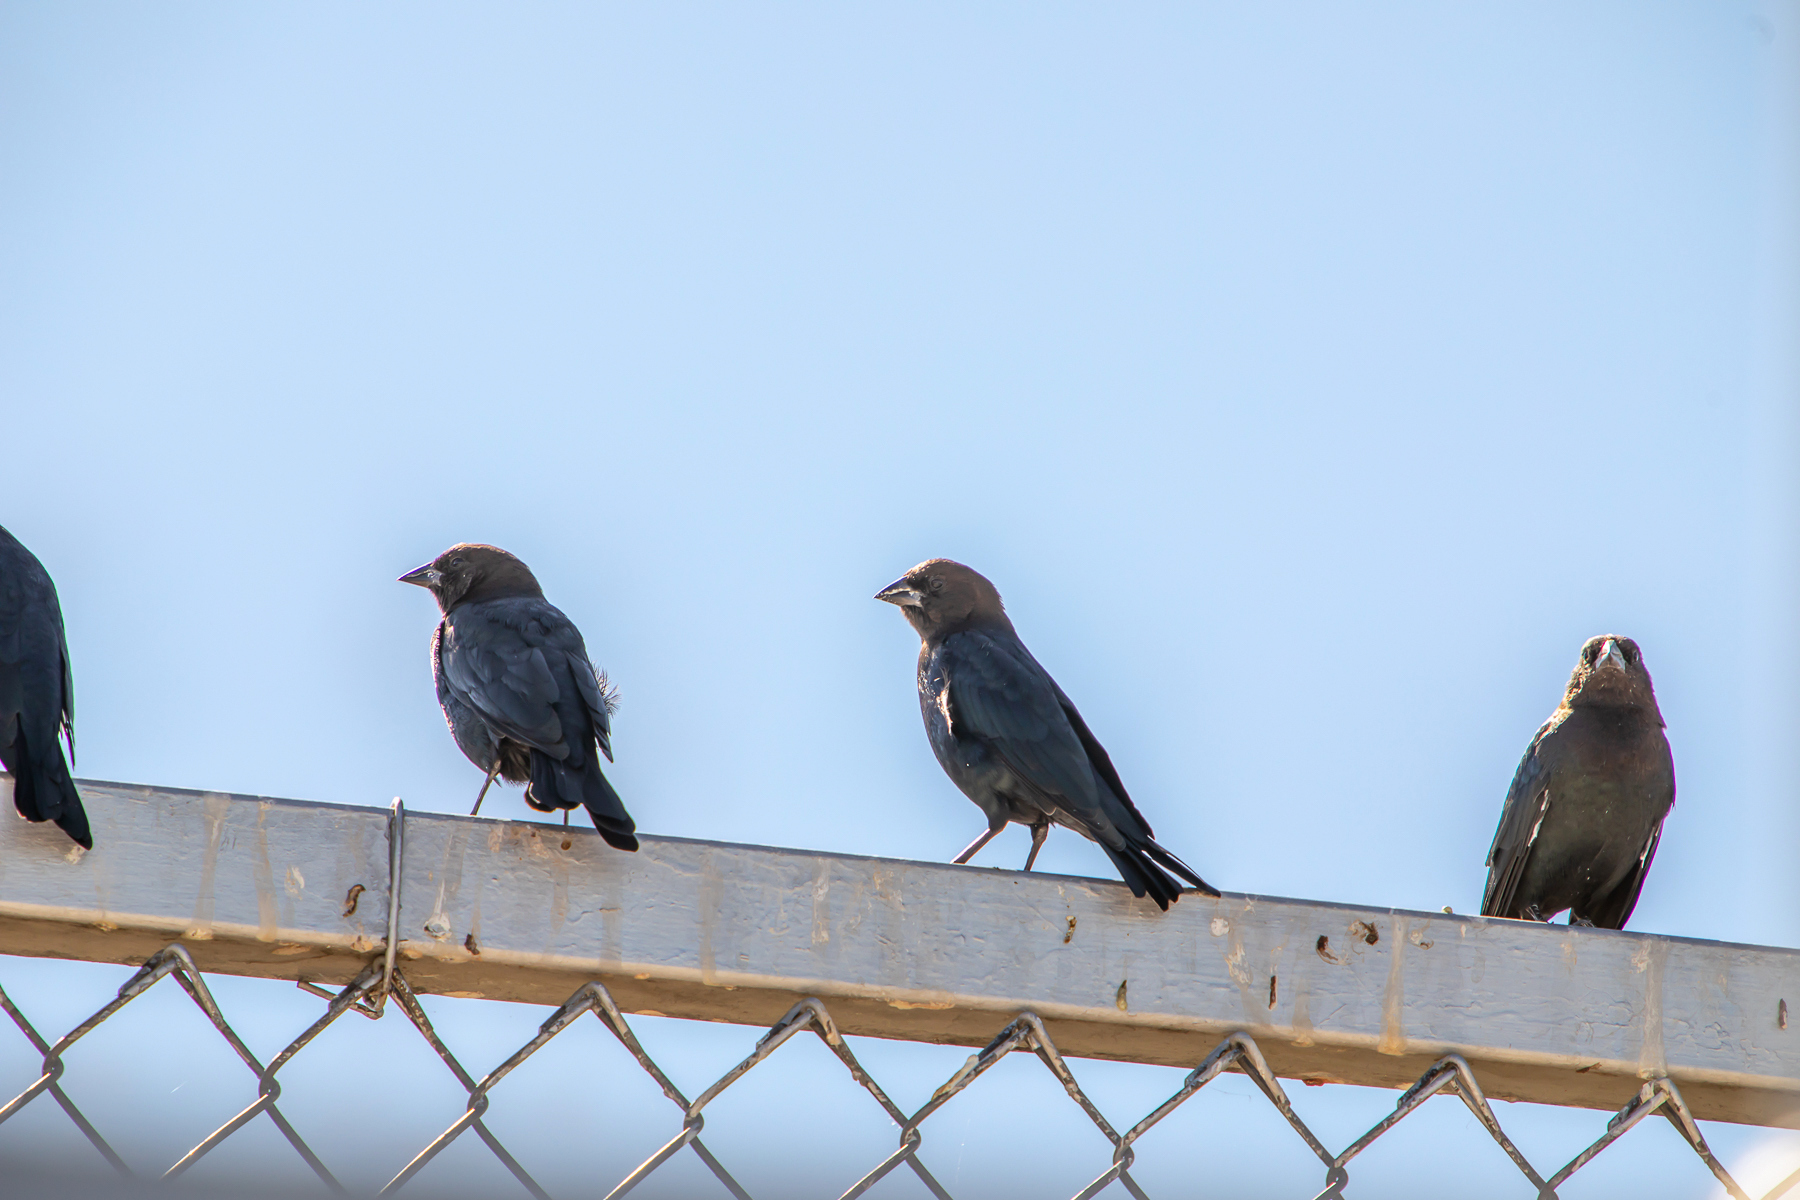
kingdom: Animalia
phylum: Chordata
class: Aves
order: Passeriformes
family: Icteridae
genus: Molothrus
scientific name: Molothrus ater
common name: Brown-headed cowbird
